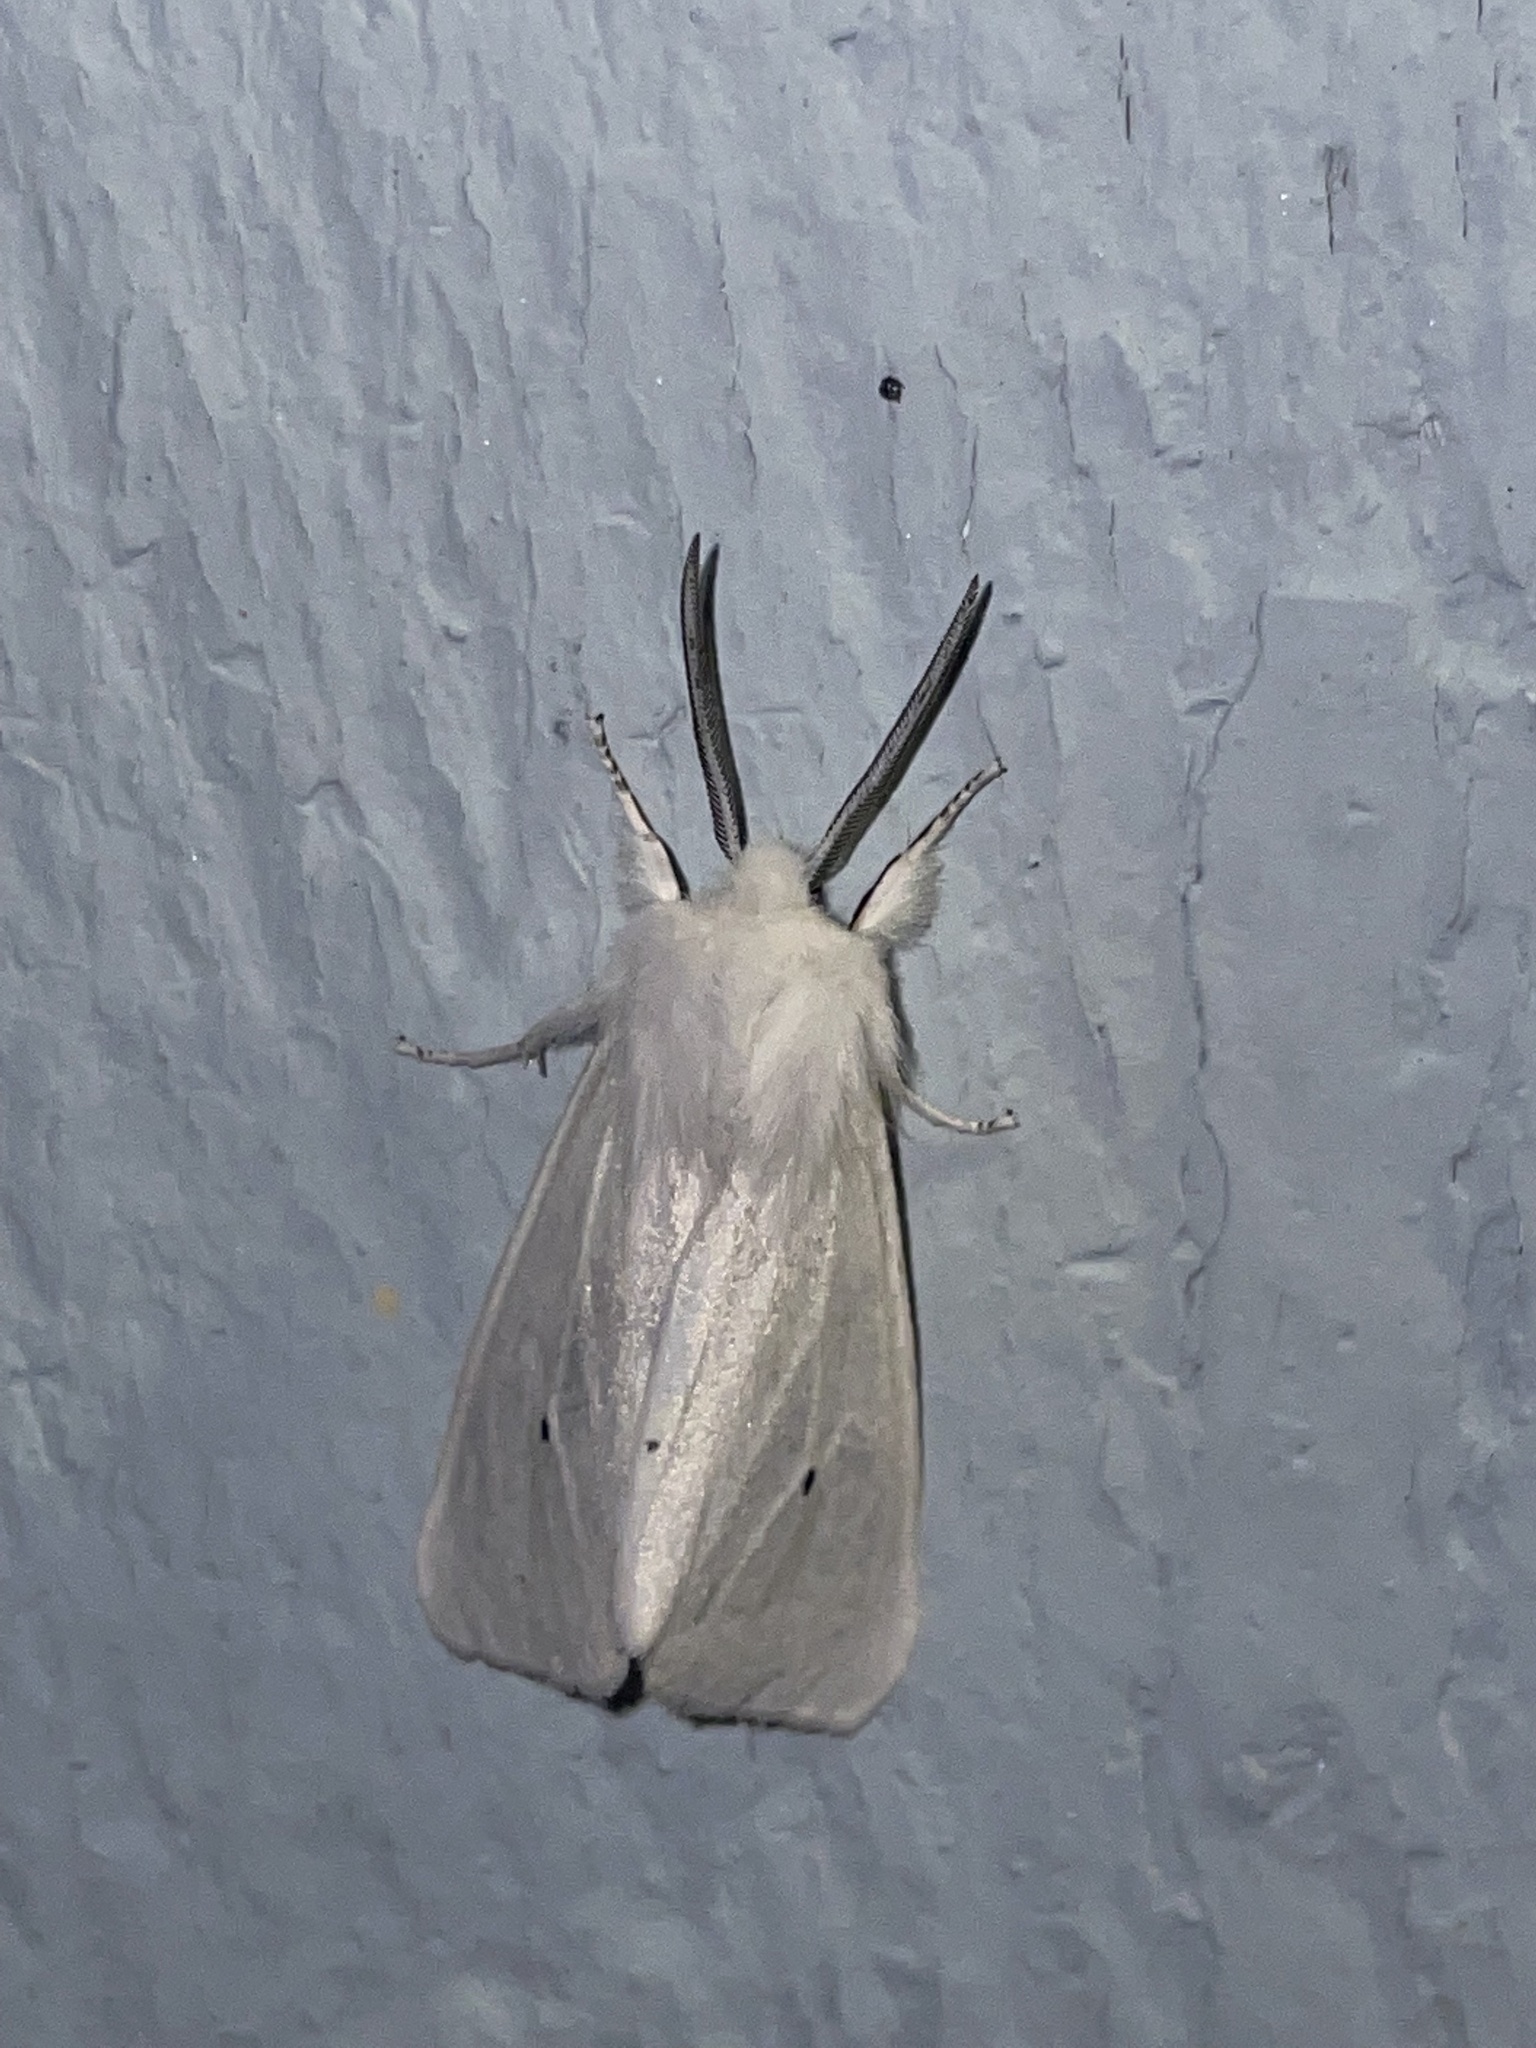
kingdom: Animalia
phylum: Arthropoda
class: Insecta
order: Lepidoptera
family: Erebidae
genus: Spilosoma
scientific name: Spilosoma virginica
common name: Virginia tiger moth
